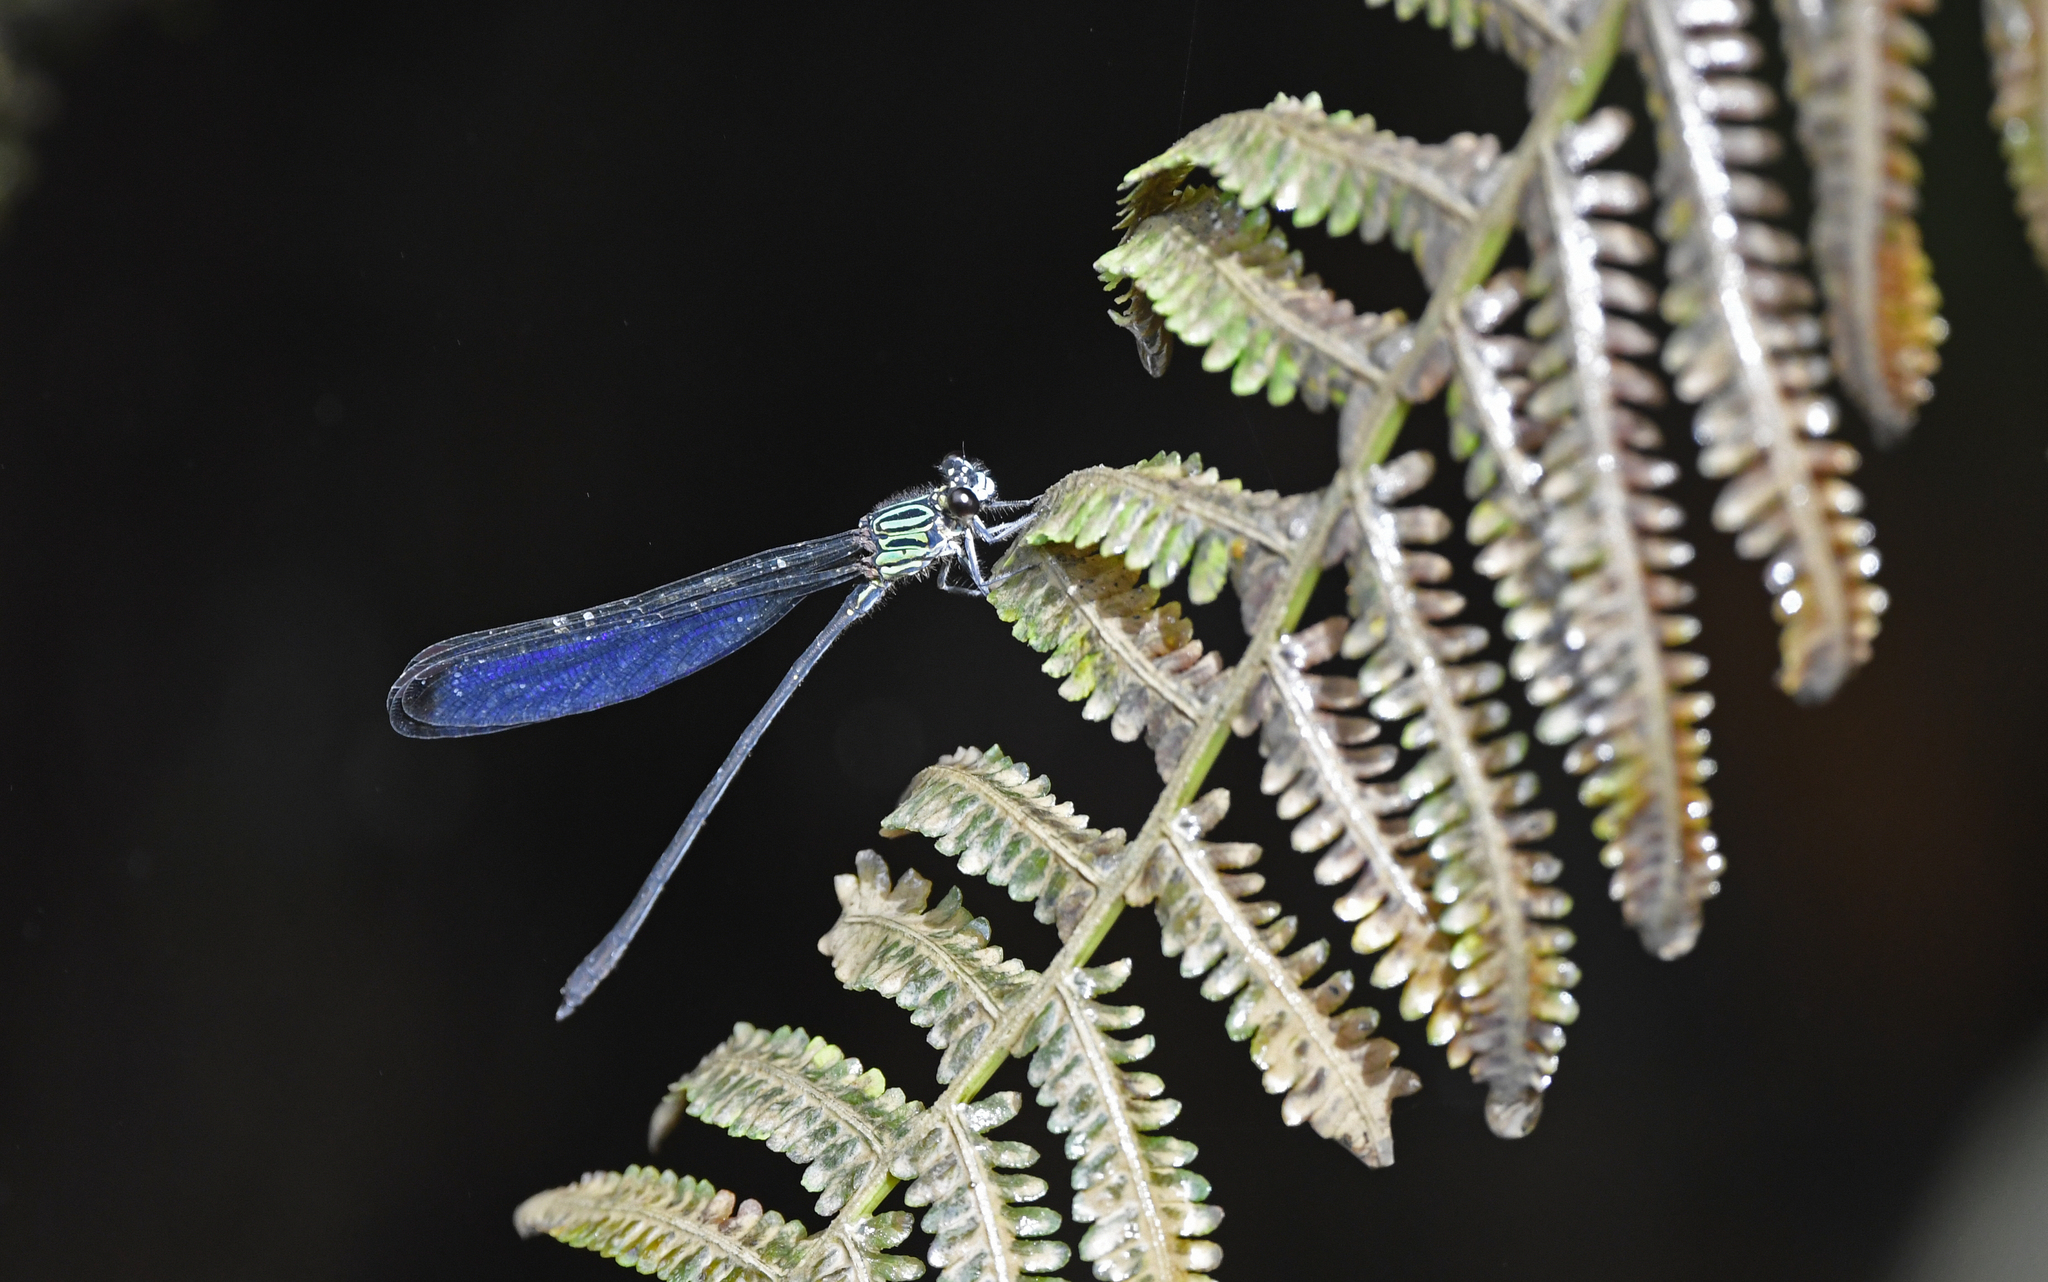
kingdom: Animalia
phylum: Arthropoda
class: Insecta
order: Odonata
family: Polythoridae
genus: Euthore
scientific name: Euthore terminalis
